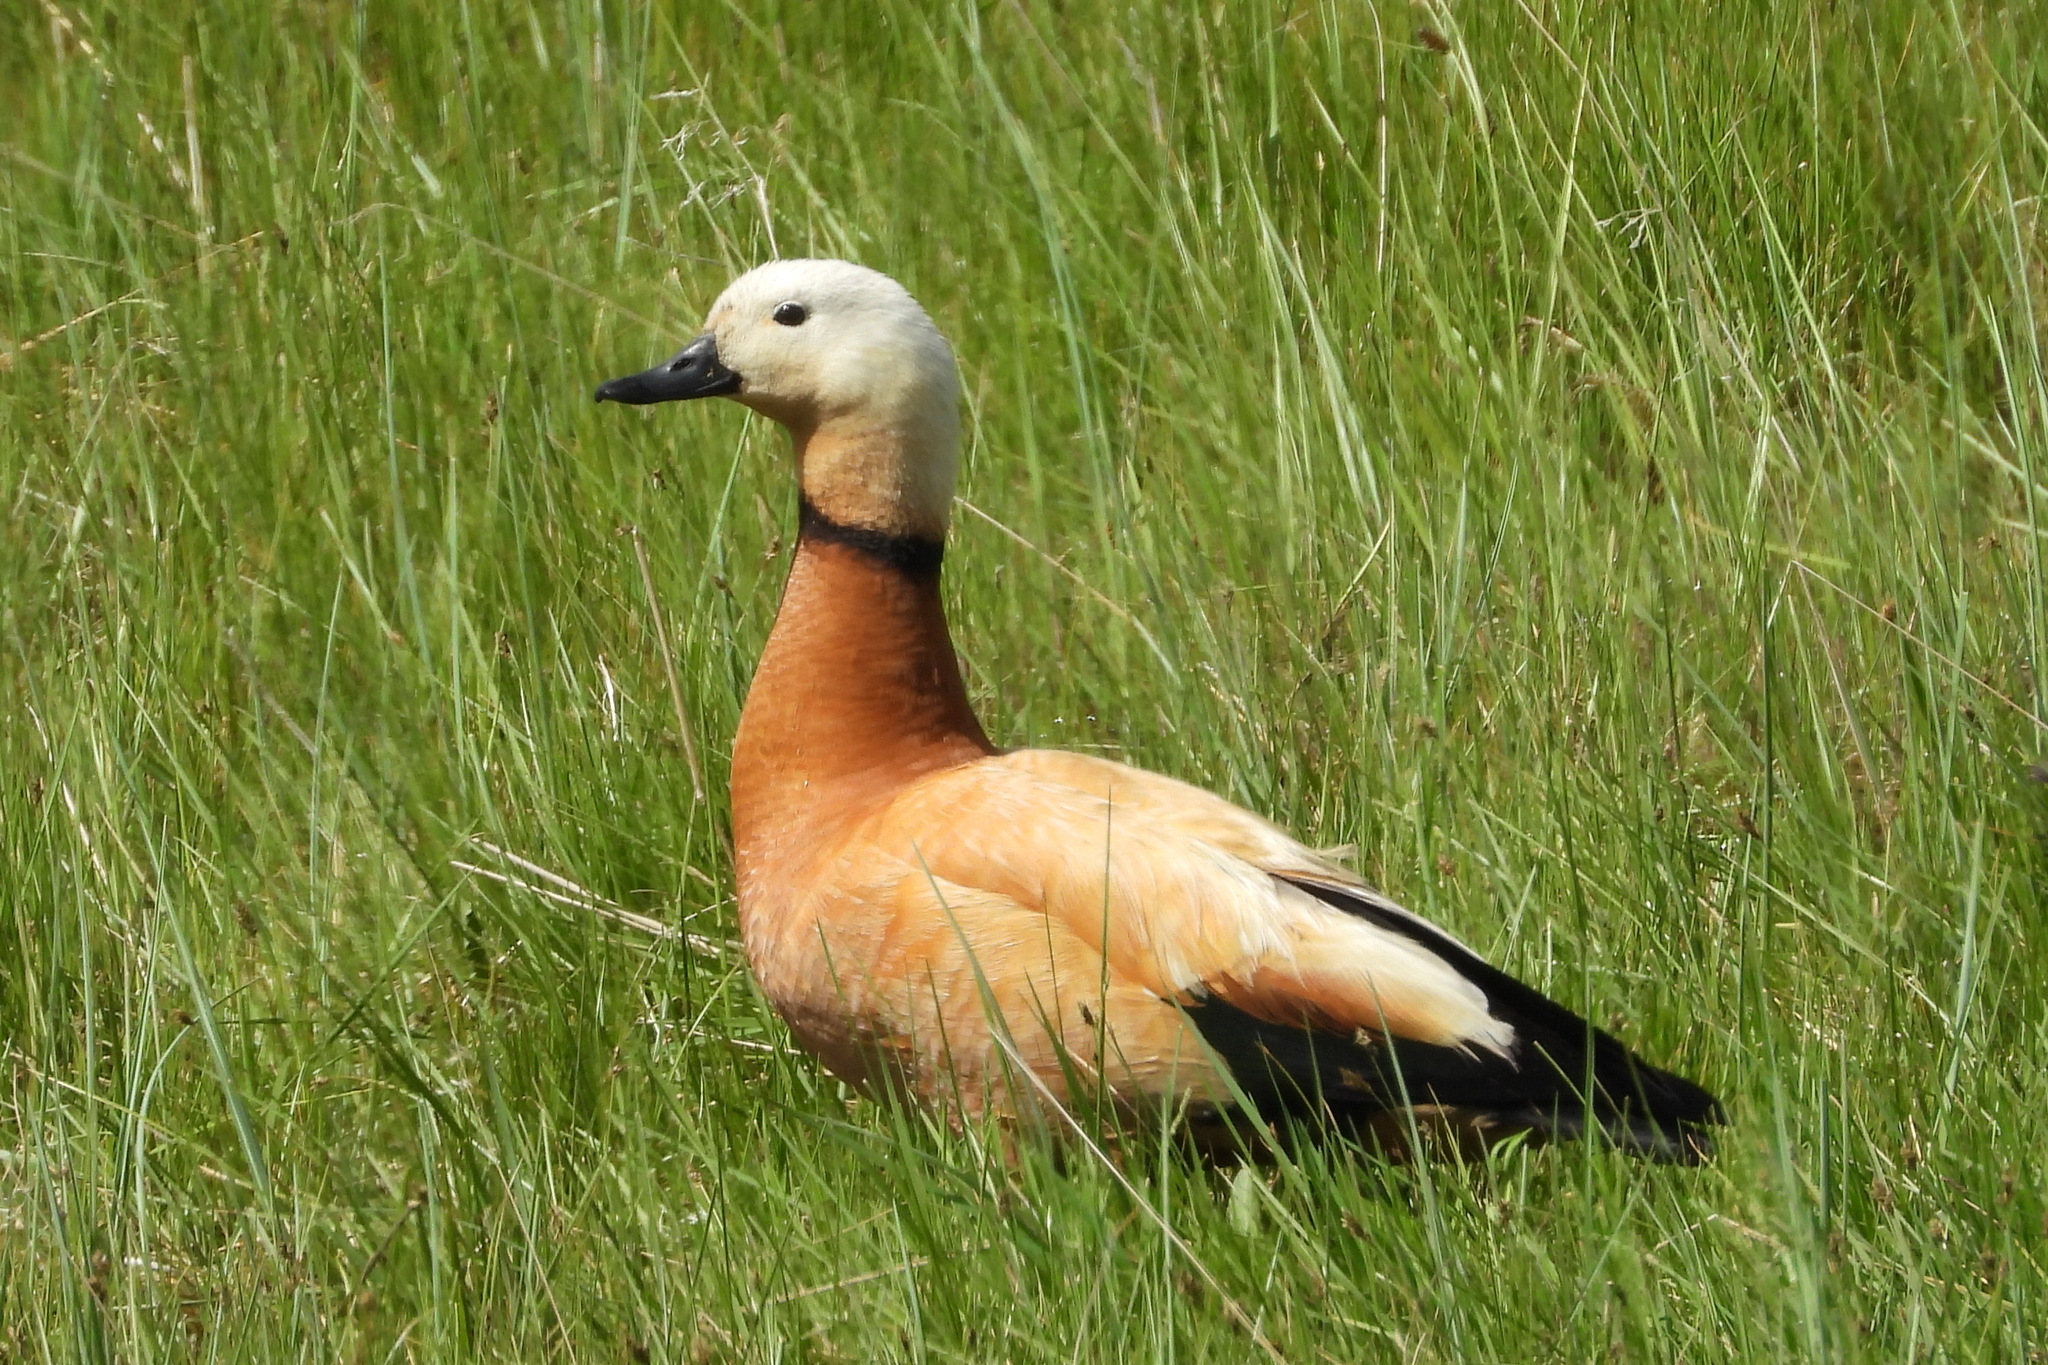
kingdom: Animalia
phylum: Chordata
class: Aves
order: Anseriformes
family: Anatidae
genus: Tadorna
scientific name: Tadorna ferruginea
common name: Ruddy shelduck
